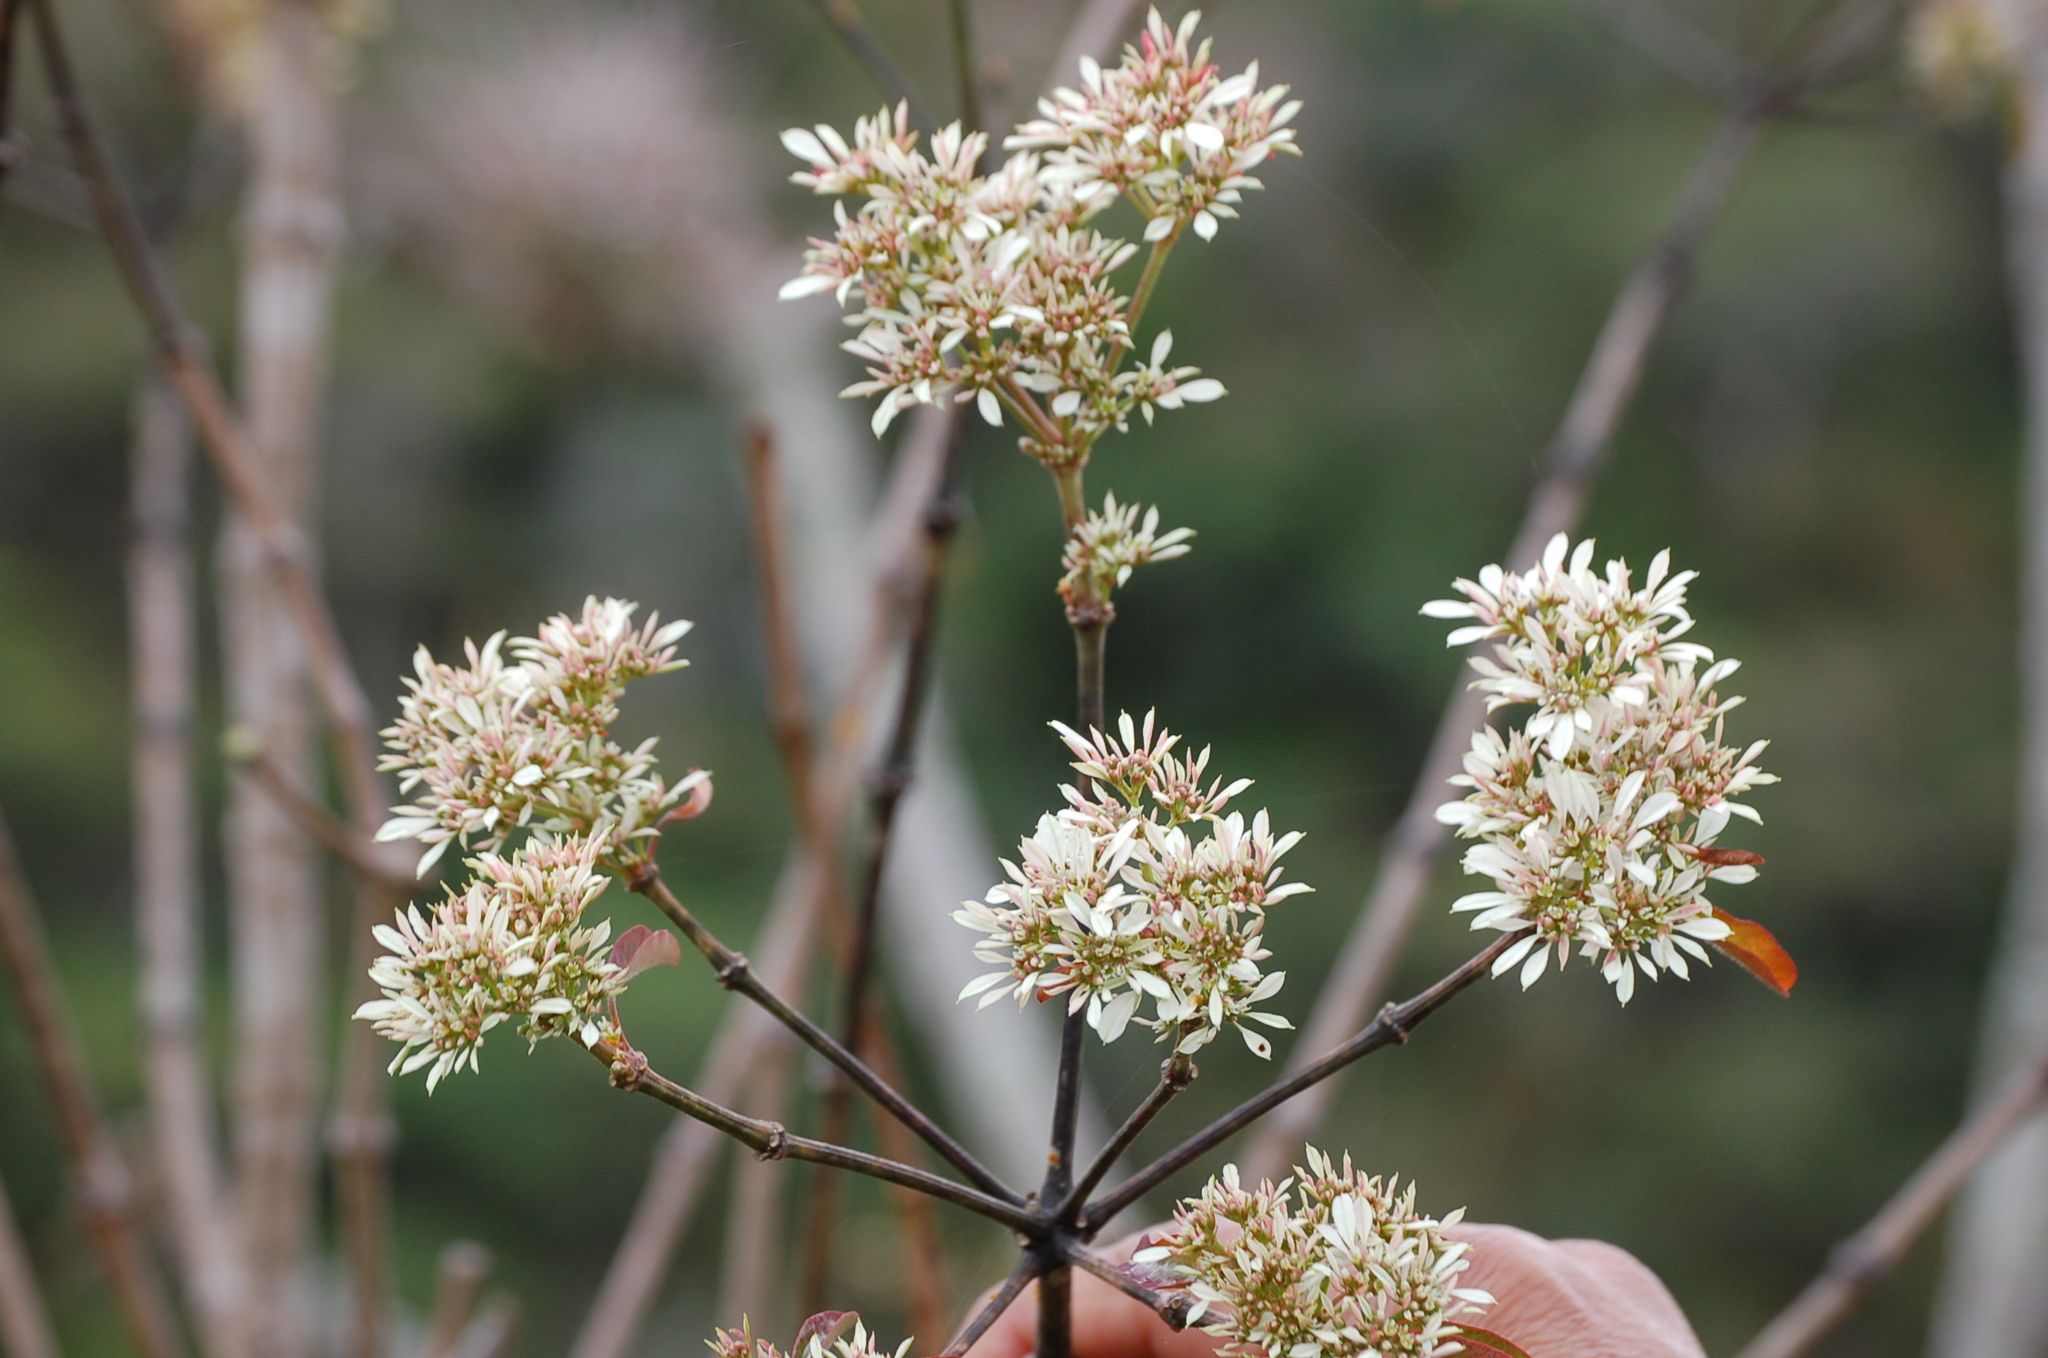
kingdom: Plantae
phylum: Tracheophyta
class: Magnoliopsida
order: Malpighiales
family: Euphorbiaceae
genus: Euphorbia
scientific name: Euphorbia leucocephala
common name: Pascuita
